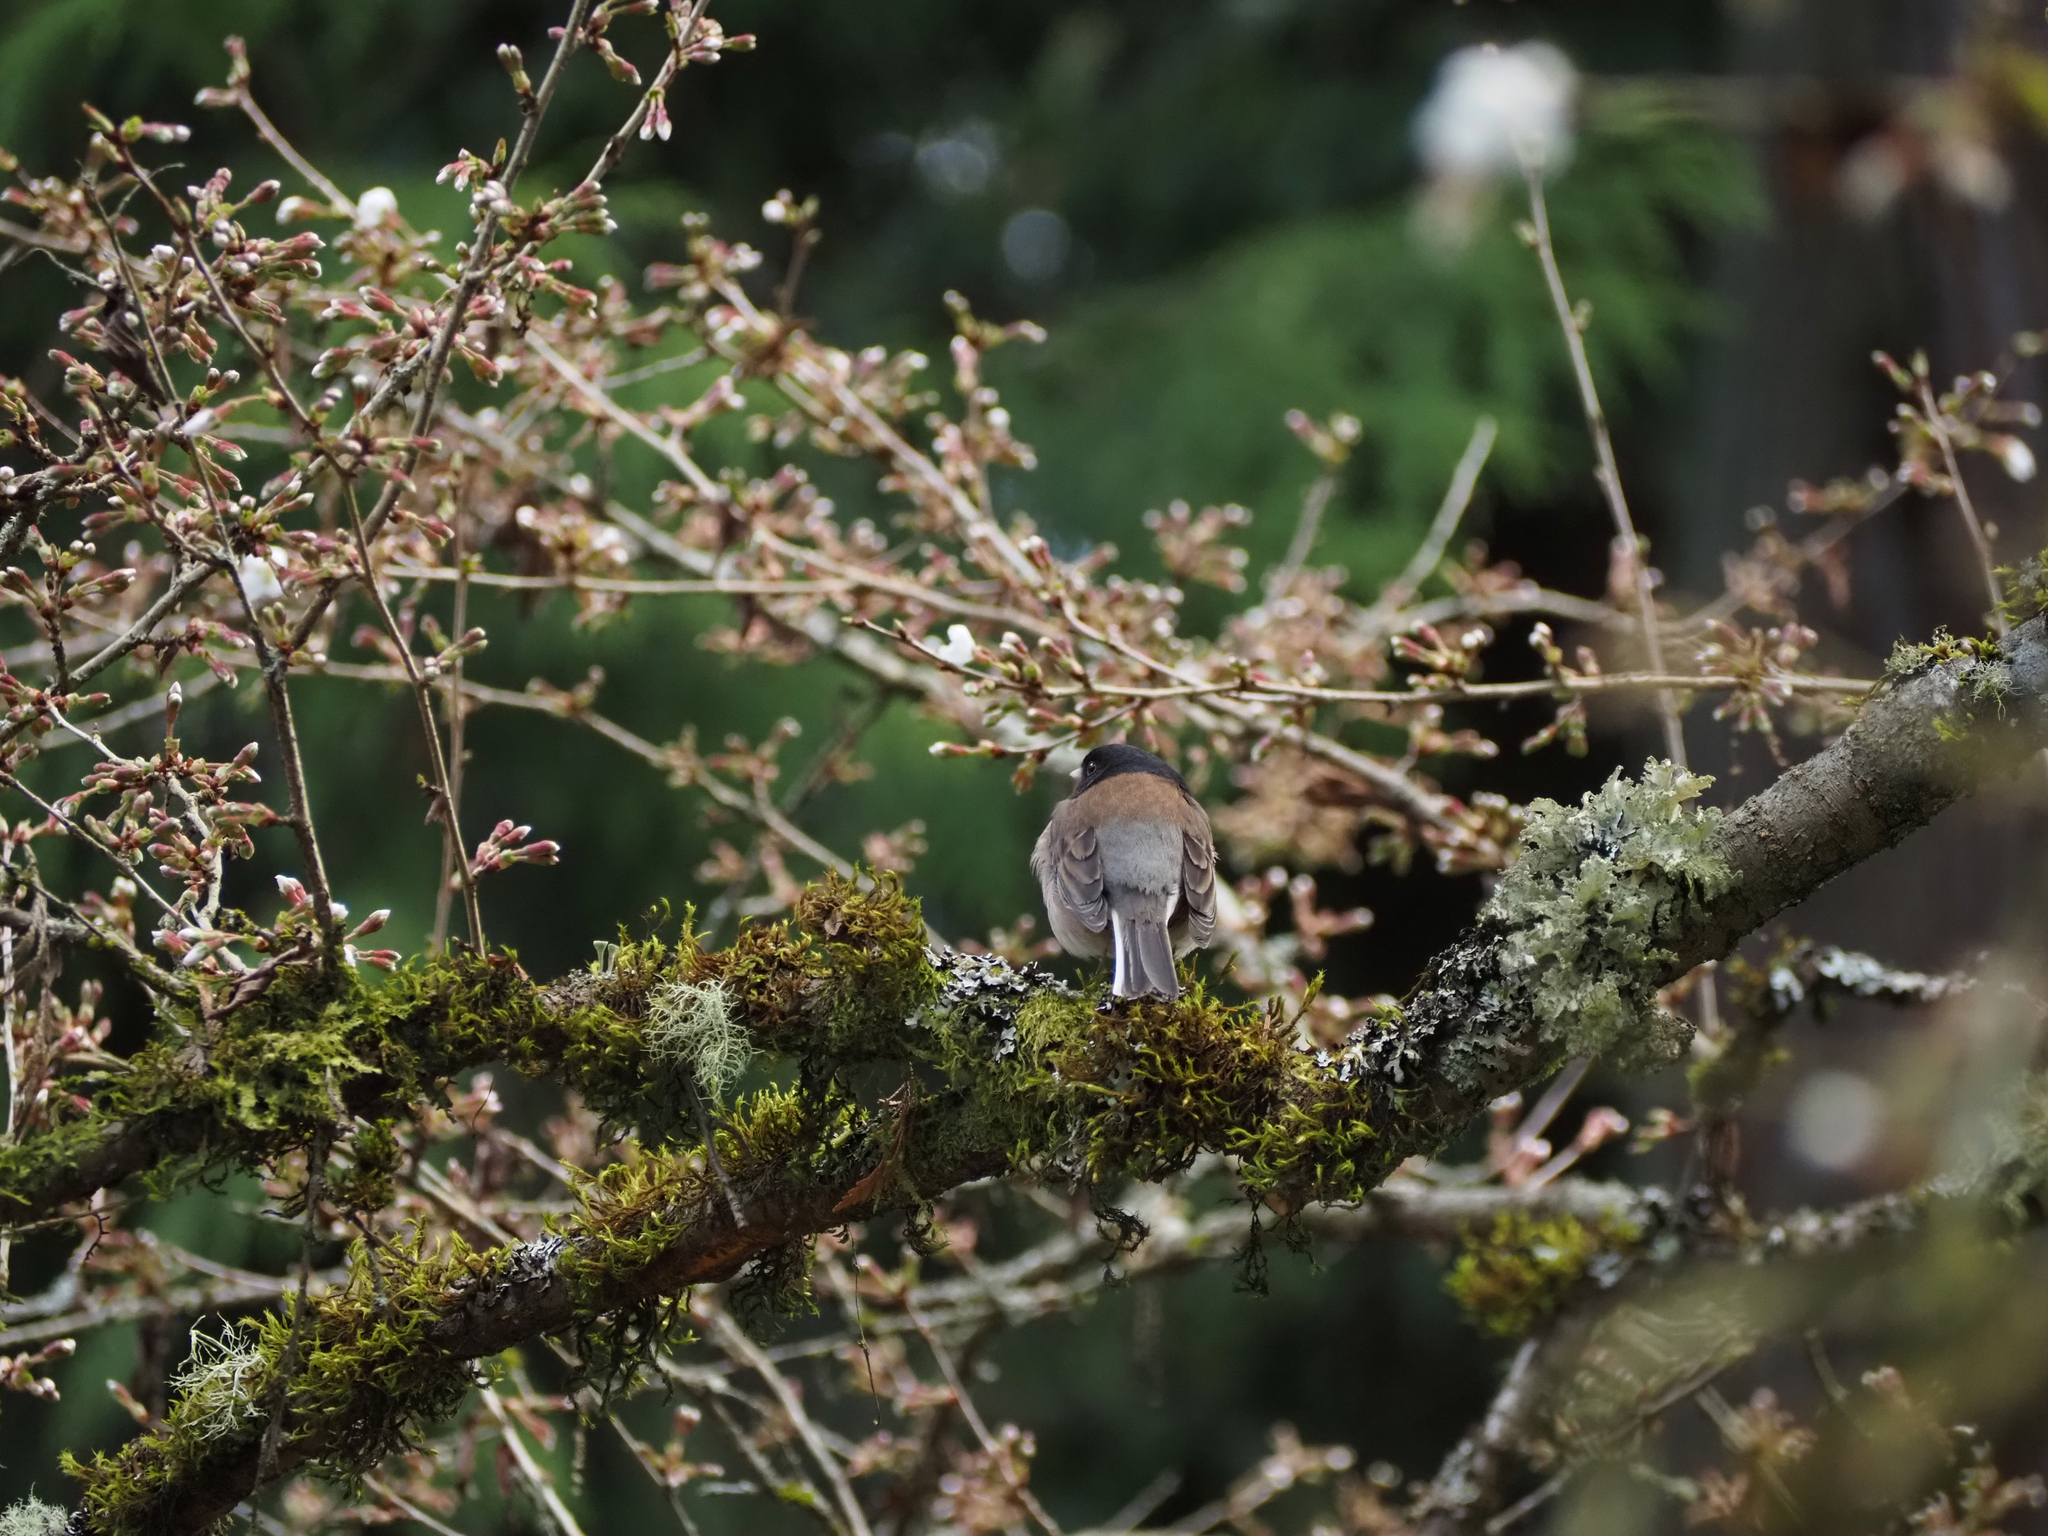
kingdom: Animalia
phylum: Chordata
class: Aves
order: Passeriformes
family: Passerellidae
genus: Junco
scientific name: Junco hyemalis
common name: Dark-eyed junco
